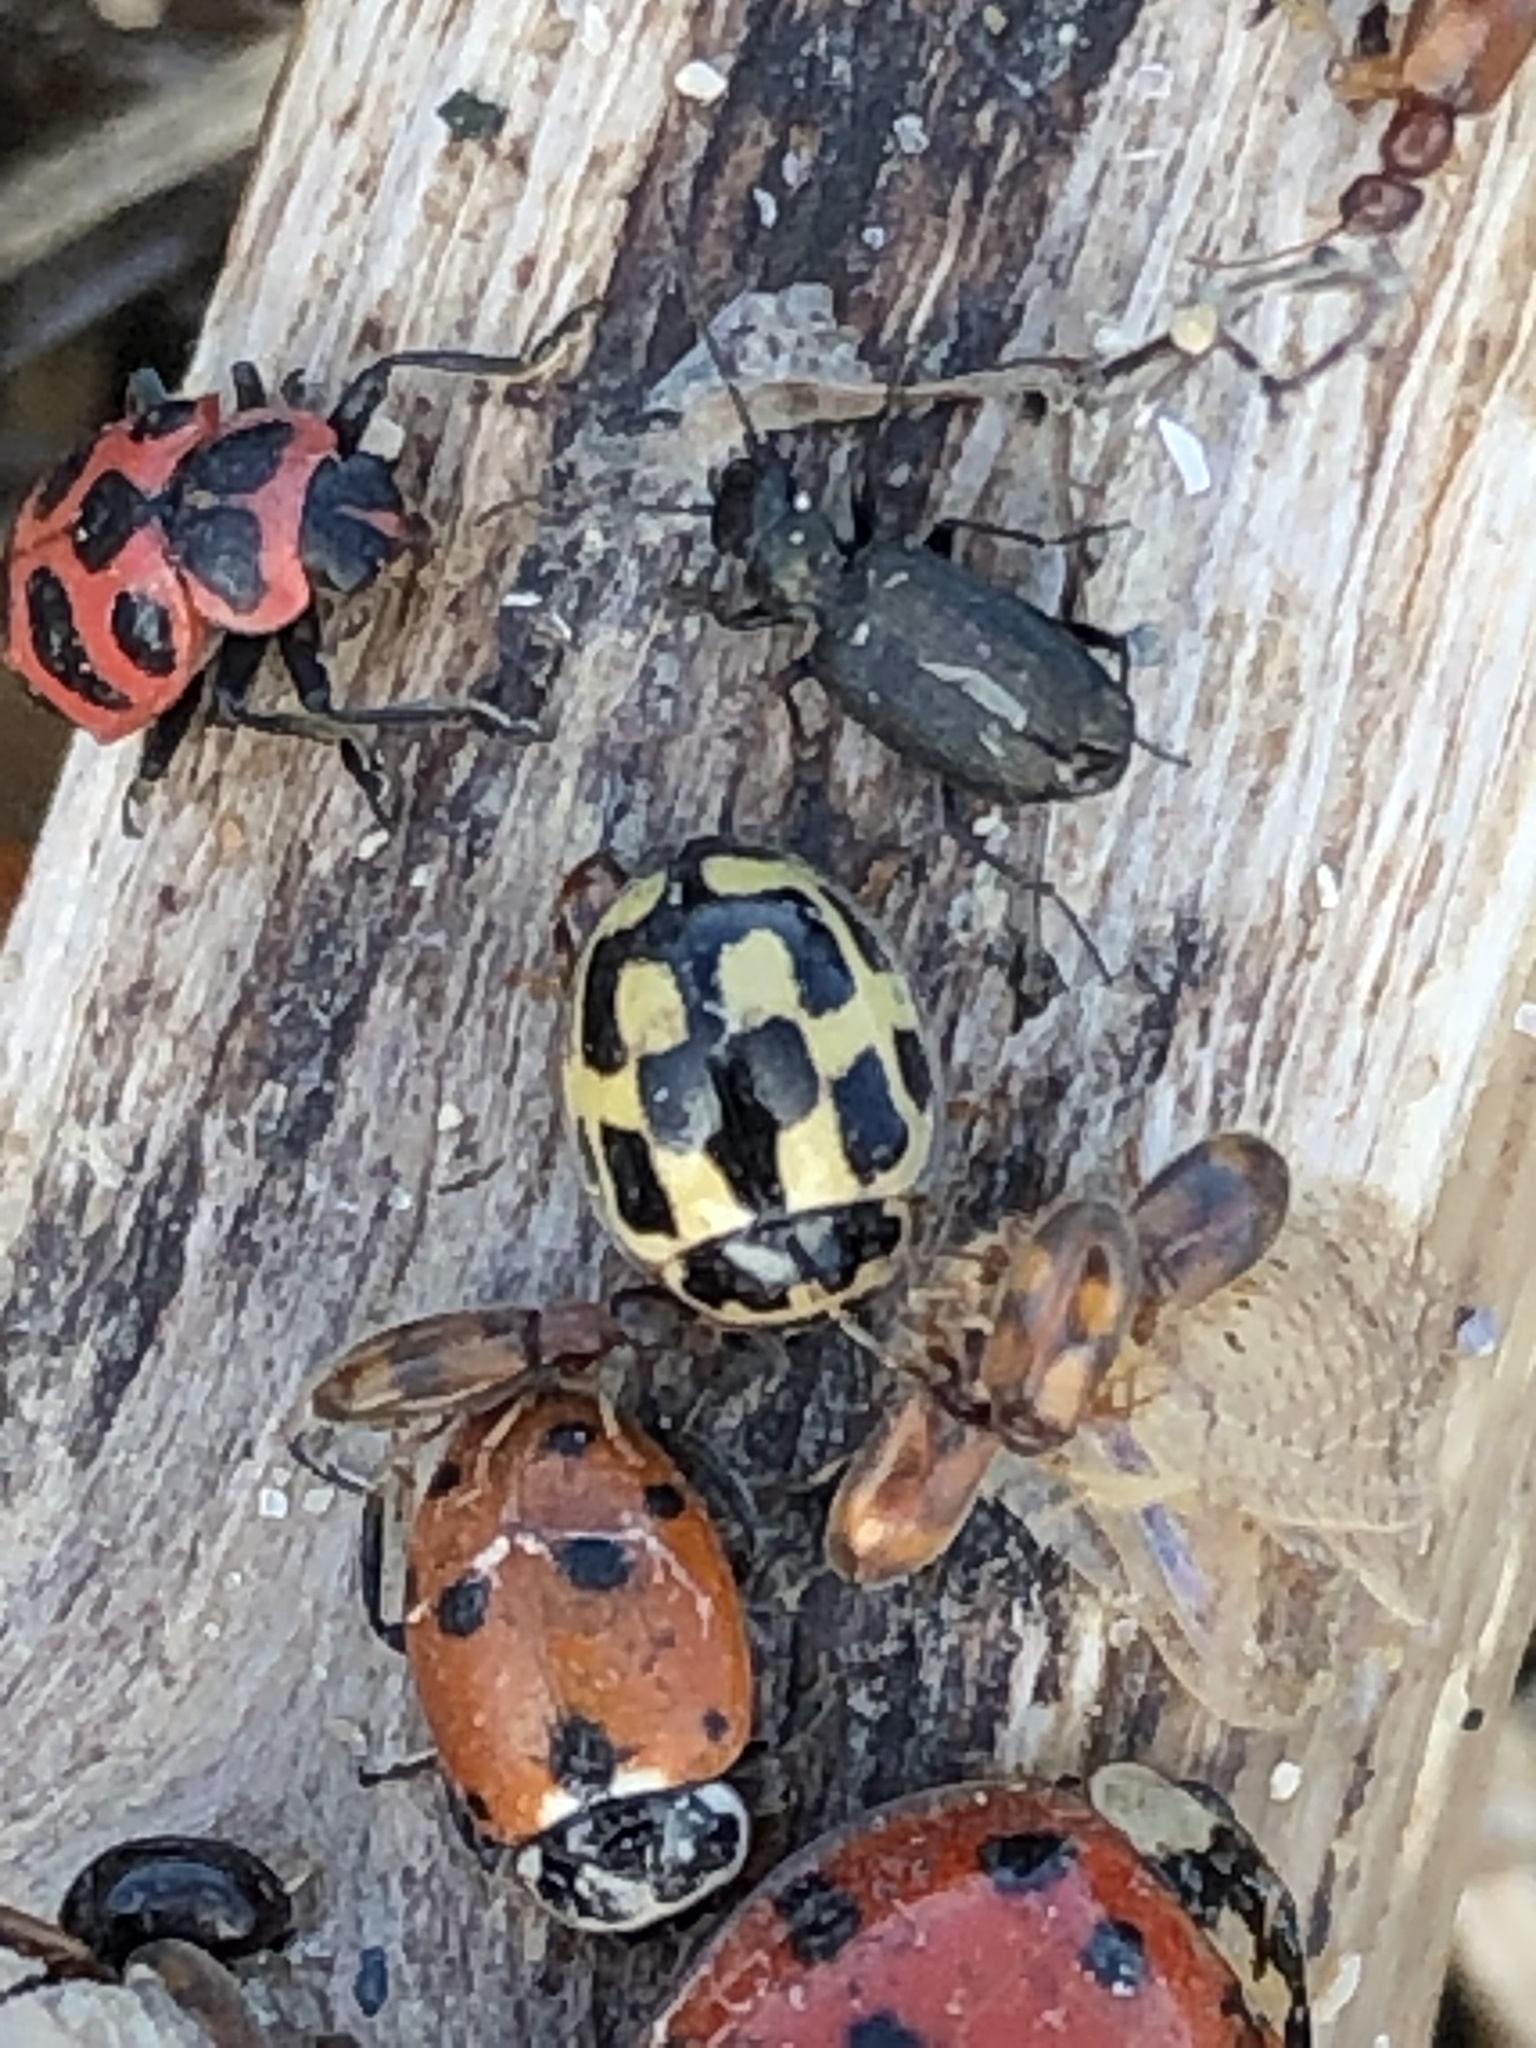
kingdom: Animalia
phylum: Arthropoda
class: Insecta
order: Coleoptera
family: Coccinellidae
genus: Propylaea
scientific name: Propylaea quatuordecimpunctata
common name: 14-spotted ladybird beetle
